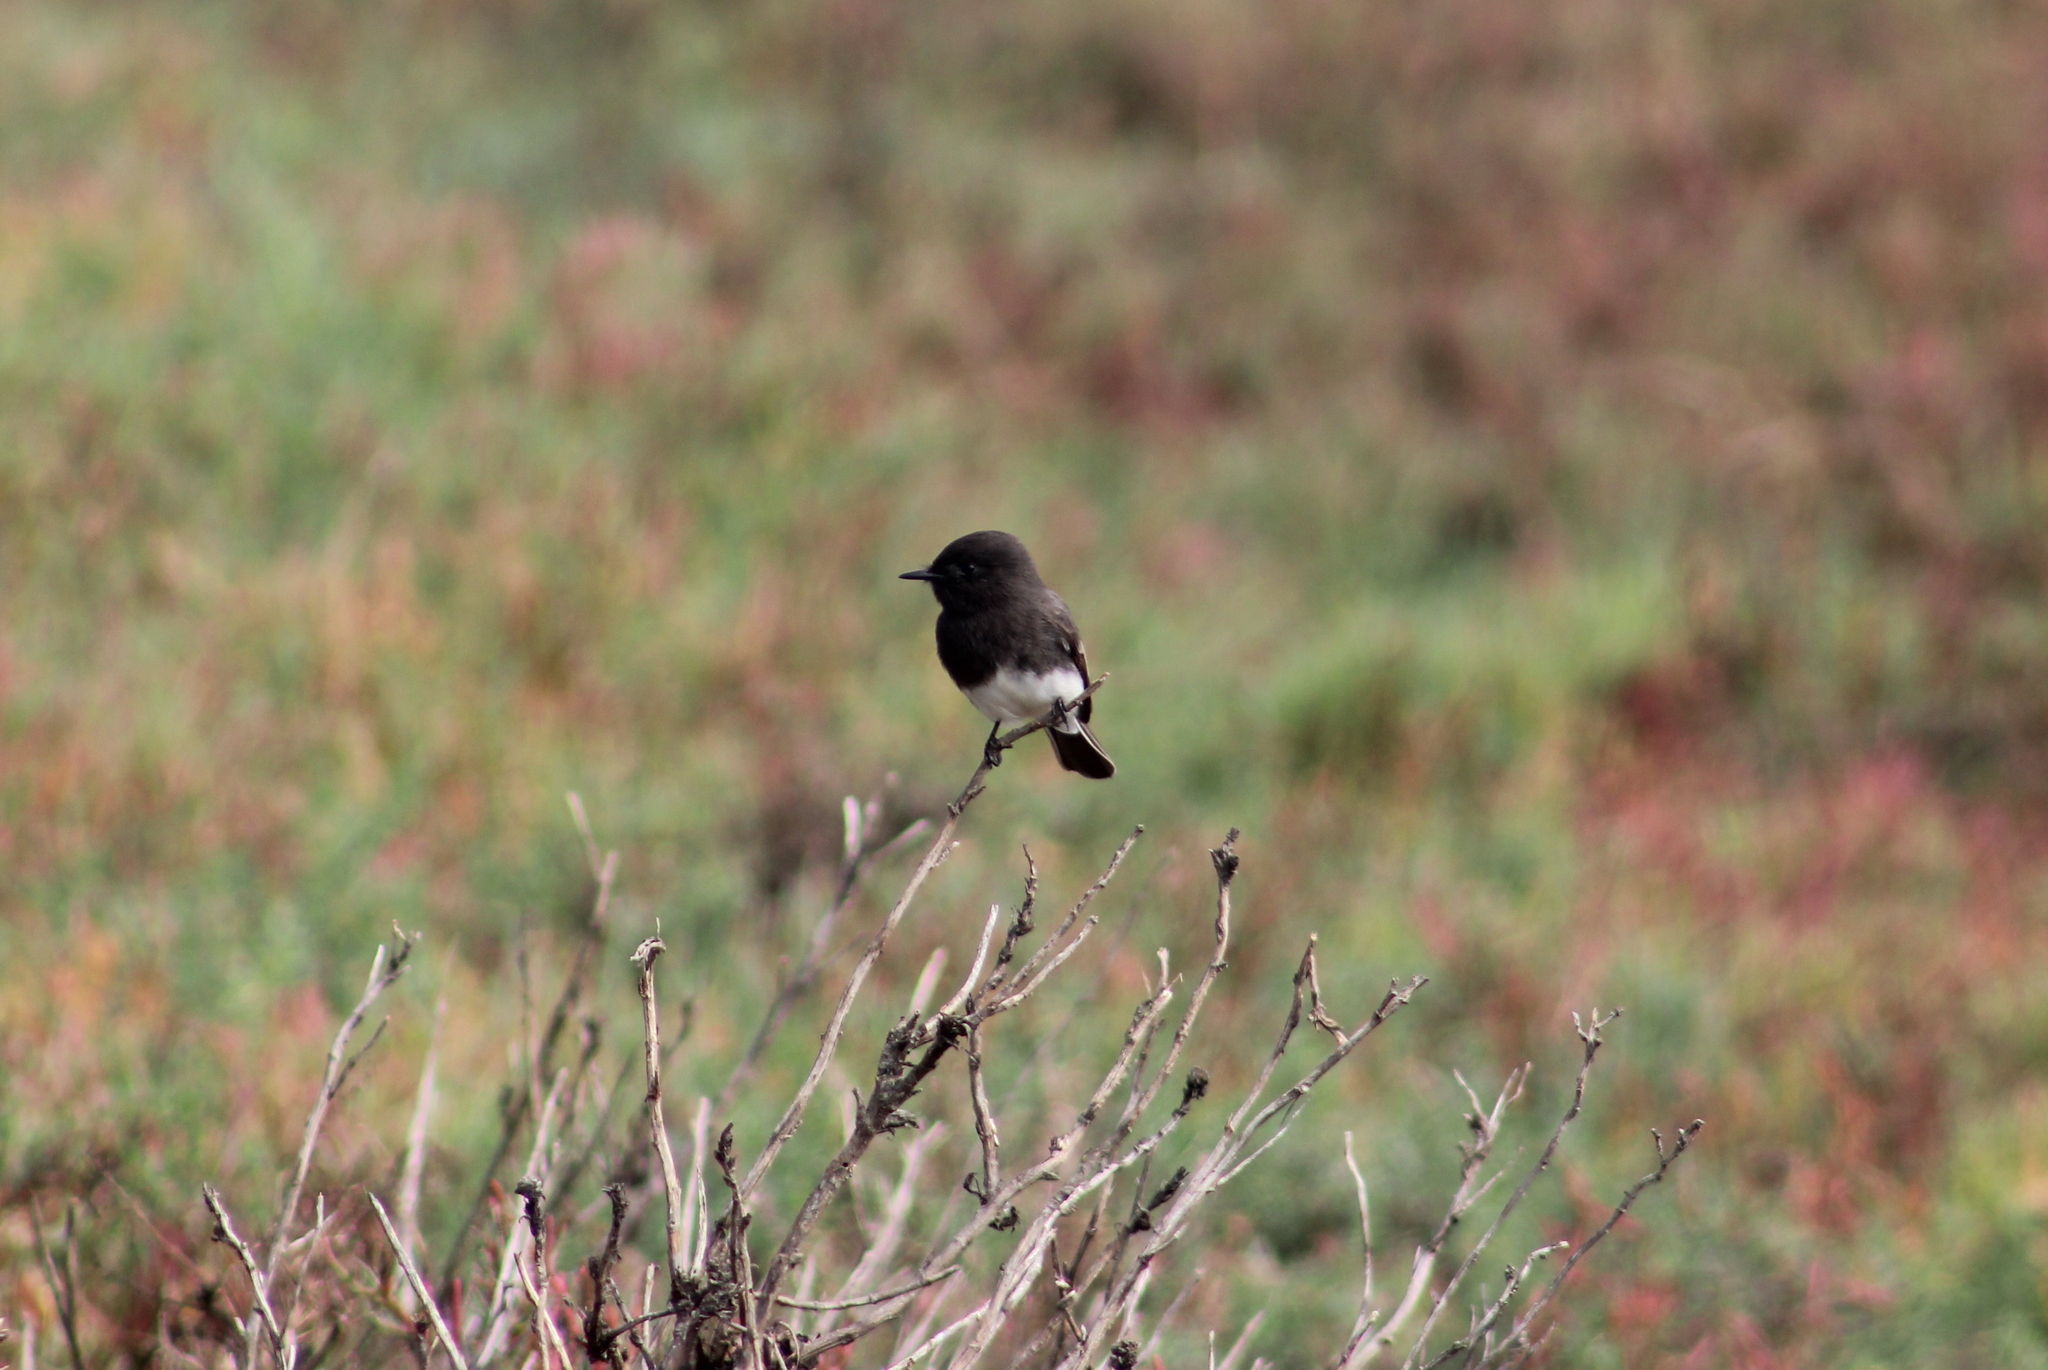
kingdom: Animalia
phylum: Chordata
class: Aves
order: Passeriformes
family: Tyrannidae
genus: Sayornis
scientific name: Sayornis nigricans
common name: Black phoebe
